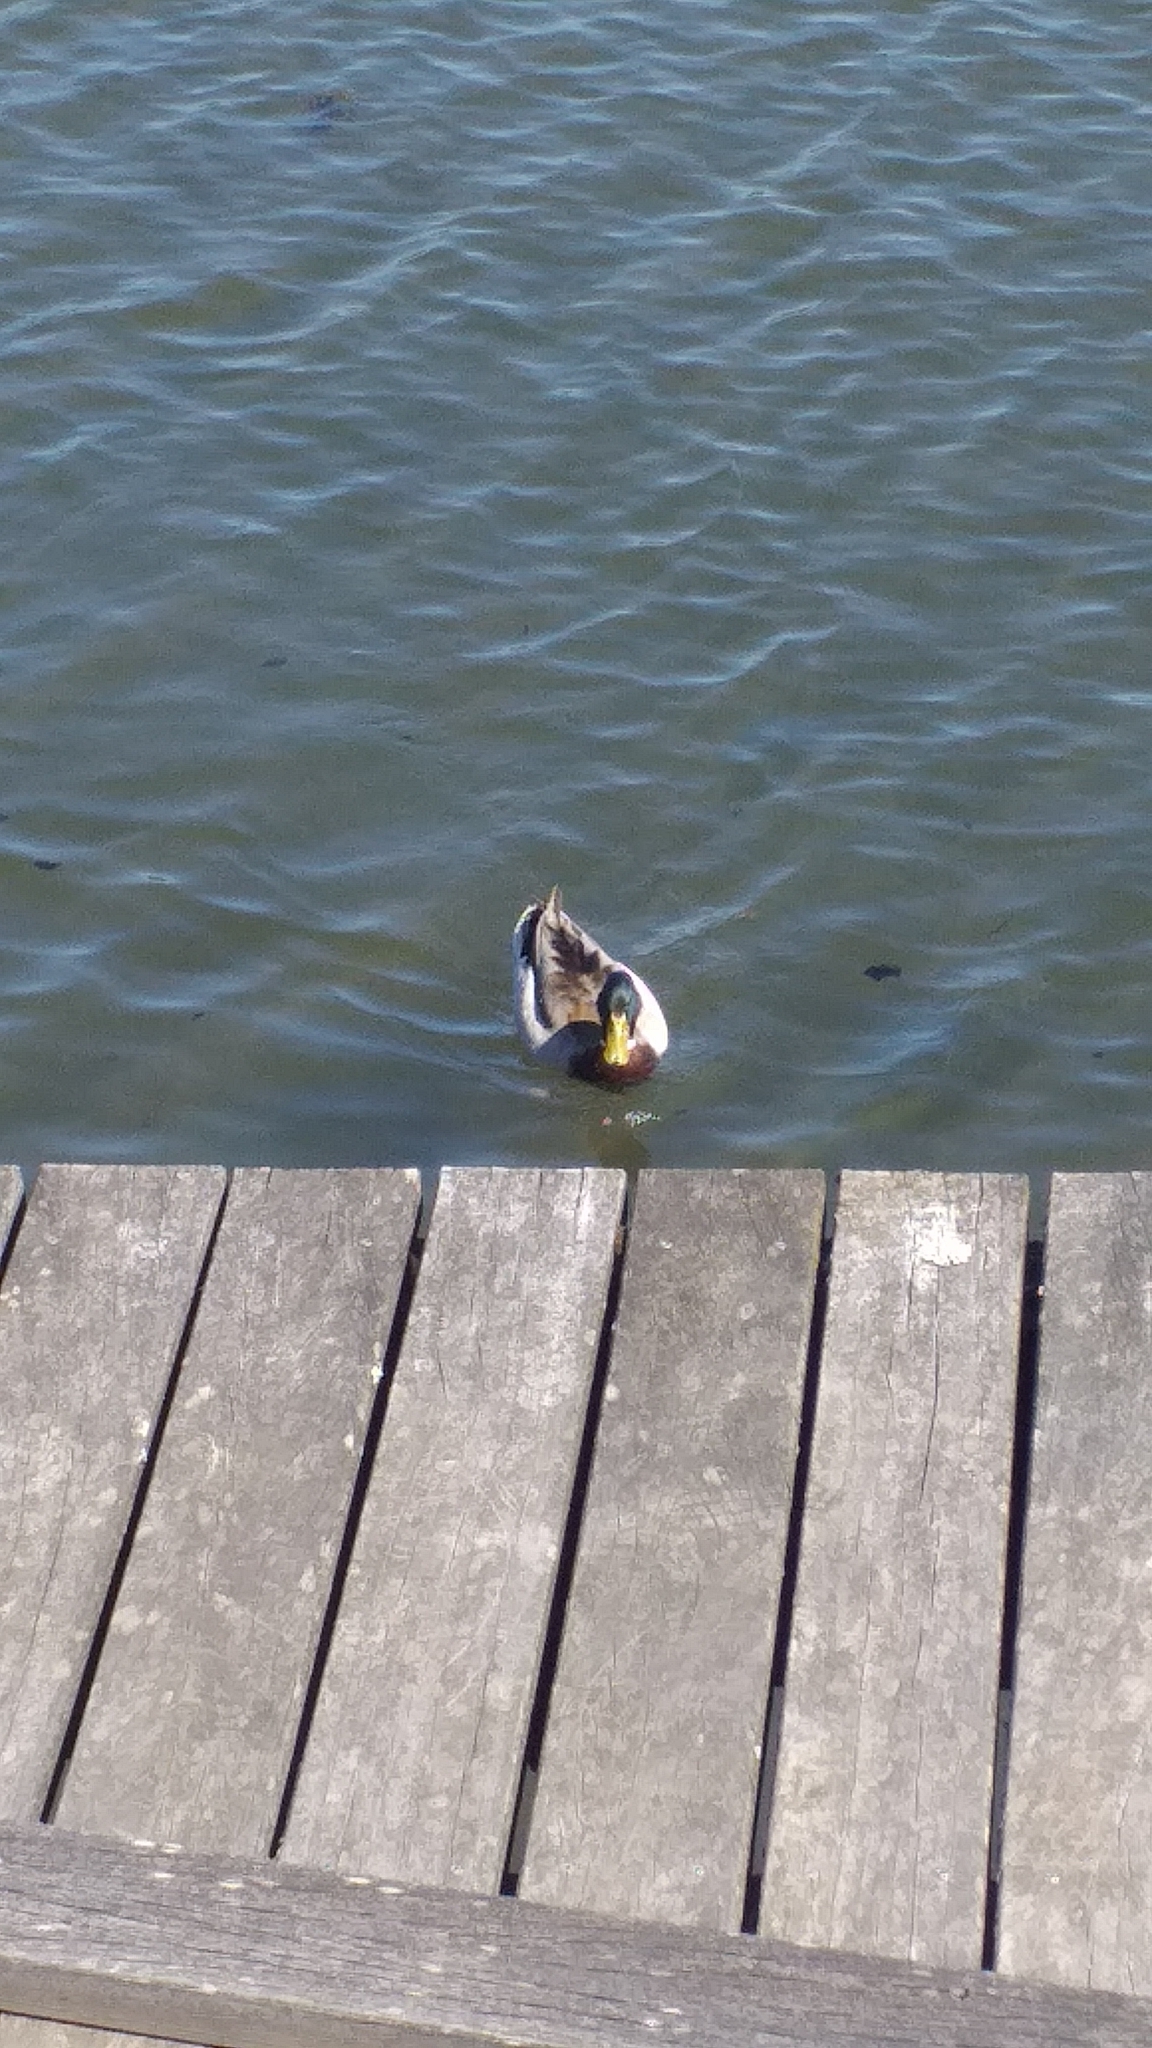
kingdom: Animalia
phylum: Chordata
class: Aves
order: Anseriformes
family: Anatidae
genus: Anas
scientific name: Anas platyrhynchos
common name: Mallard
